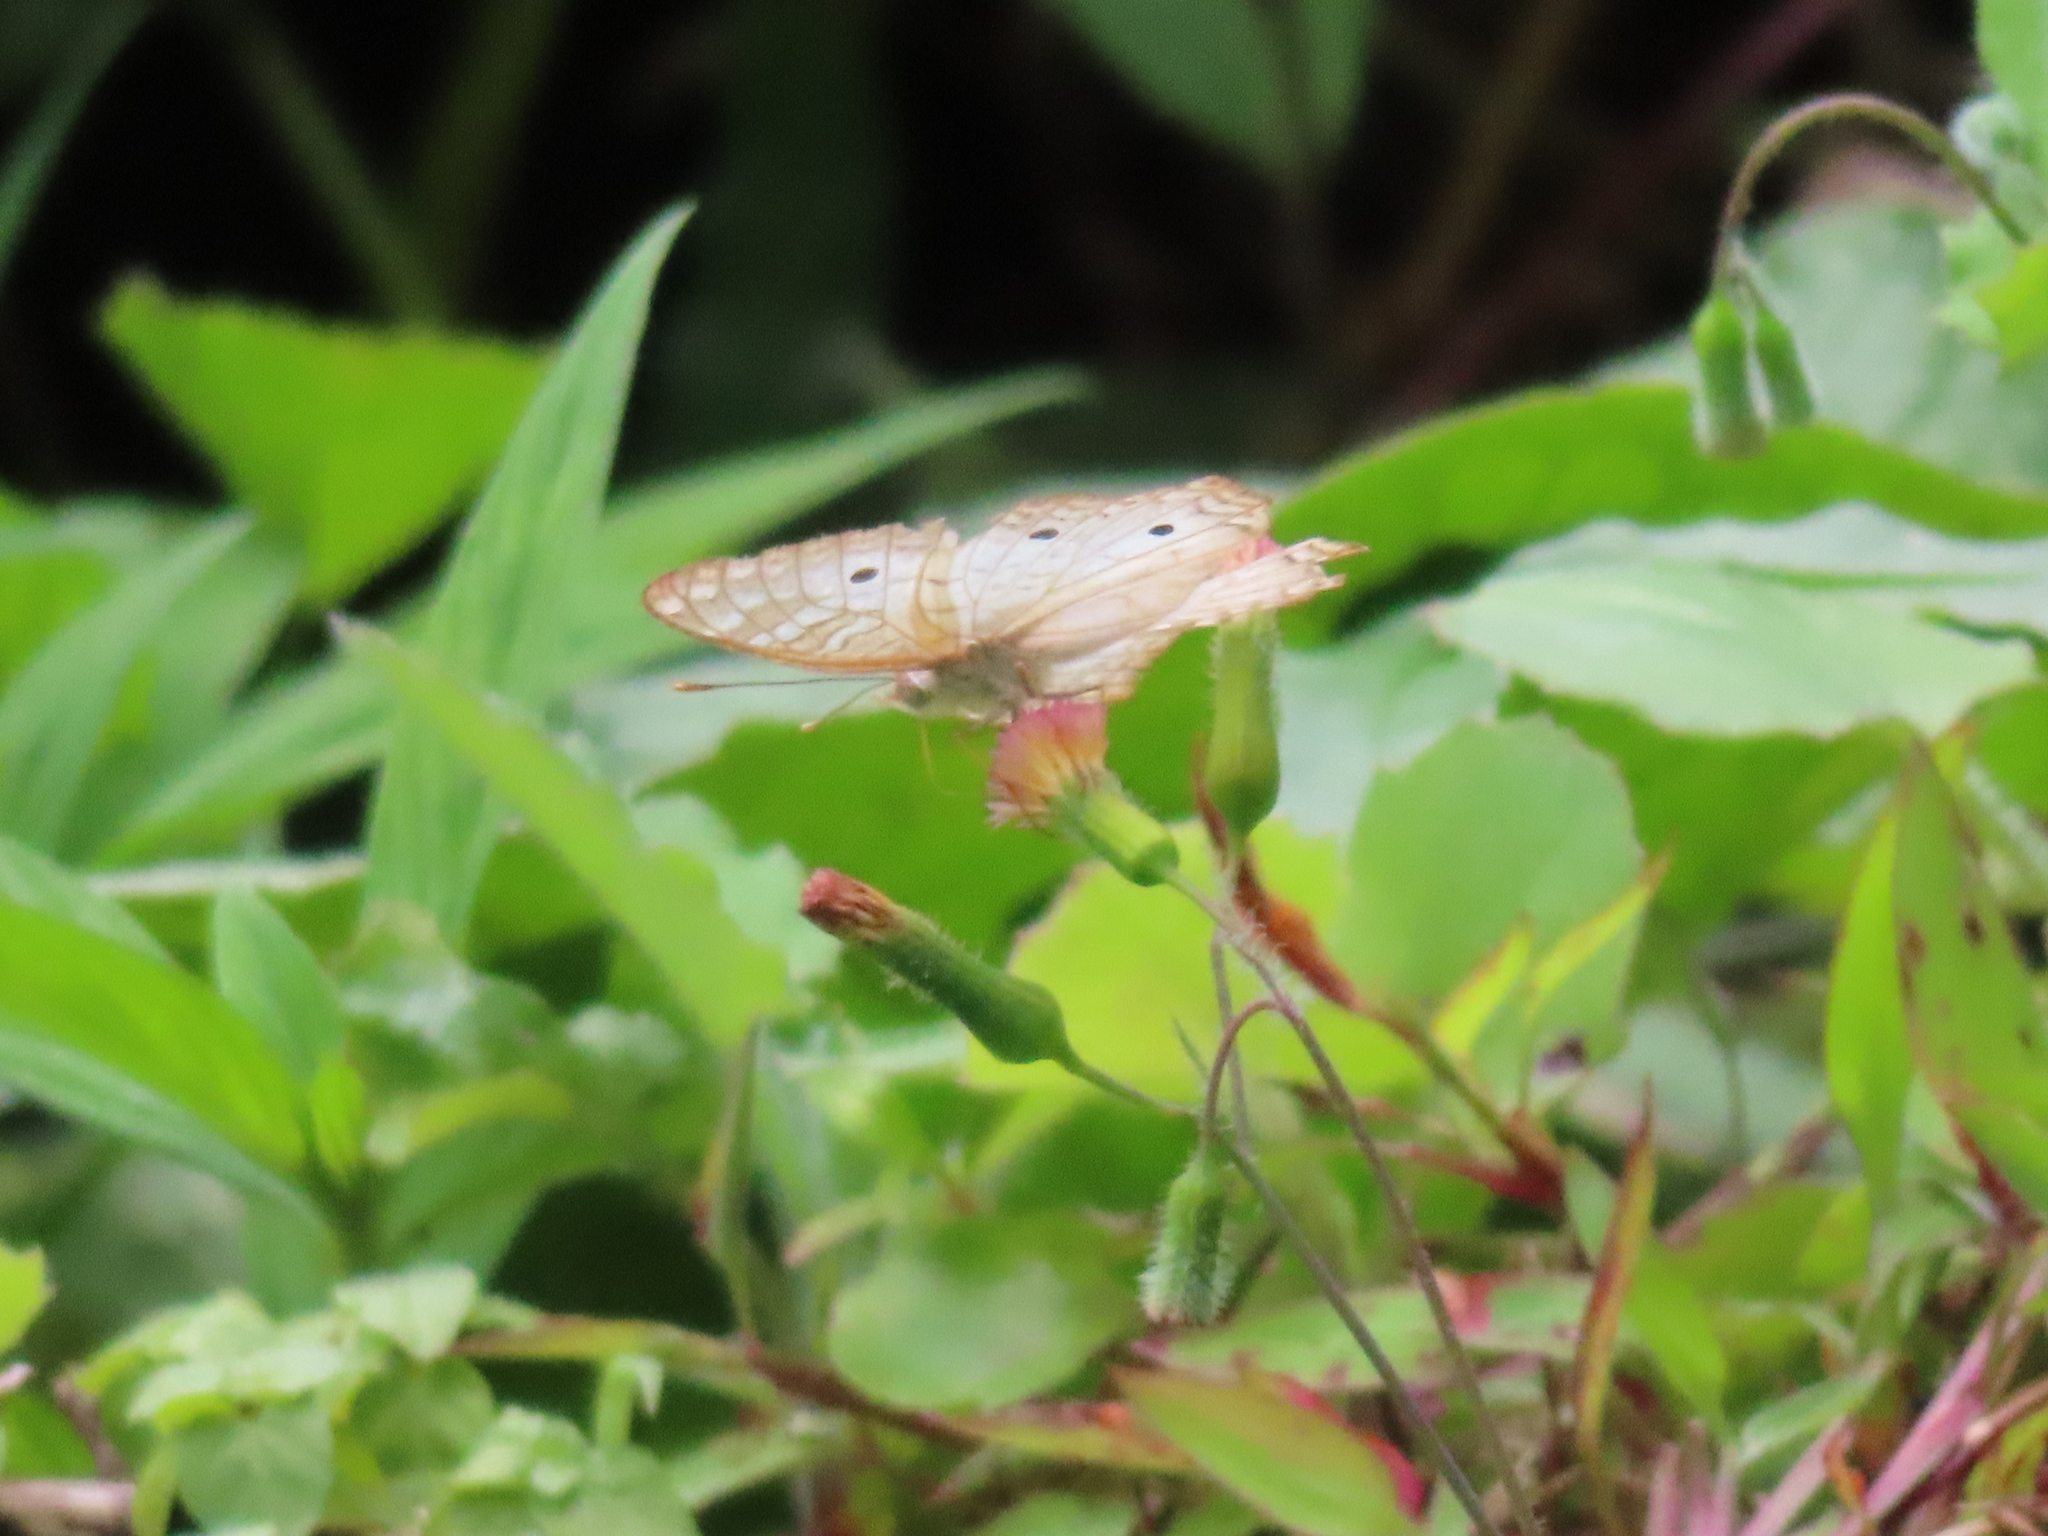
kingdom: Animalia
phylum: Arthropoda
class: Insecta
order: Lepidoptera
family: Nymphalidae
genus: Anartia
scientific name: Anartia jatrophae
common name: White peacock
